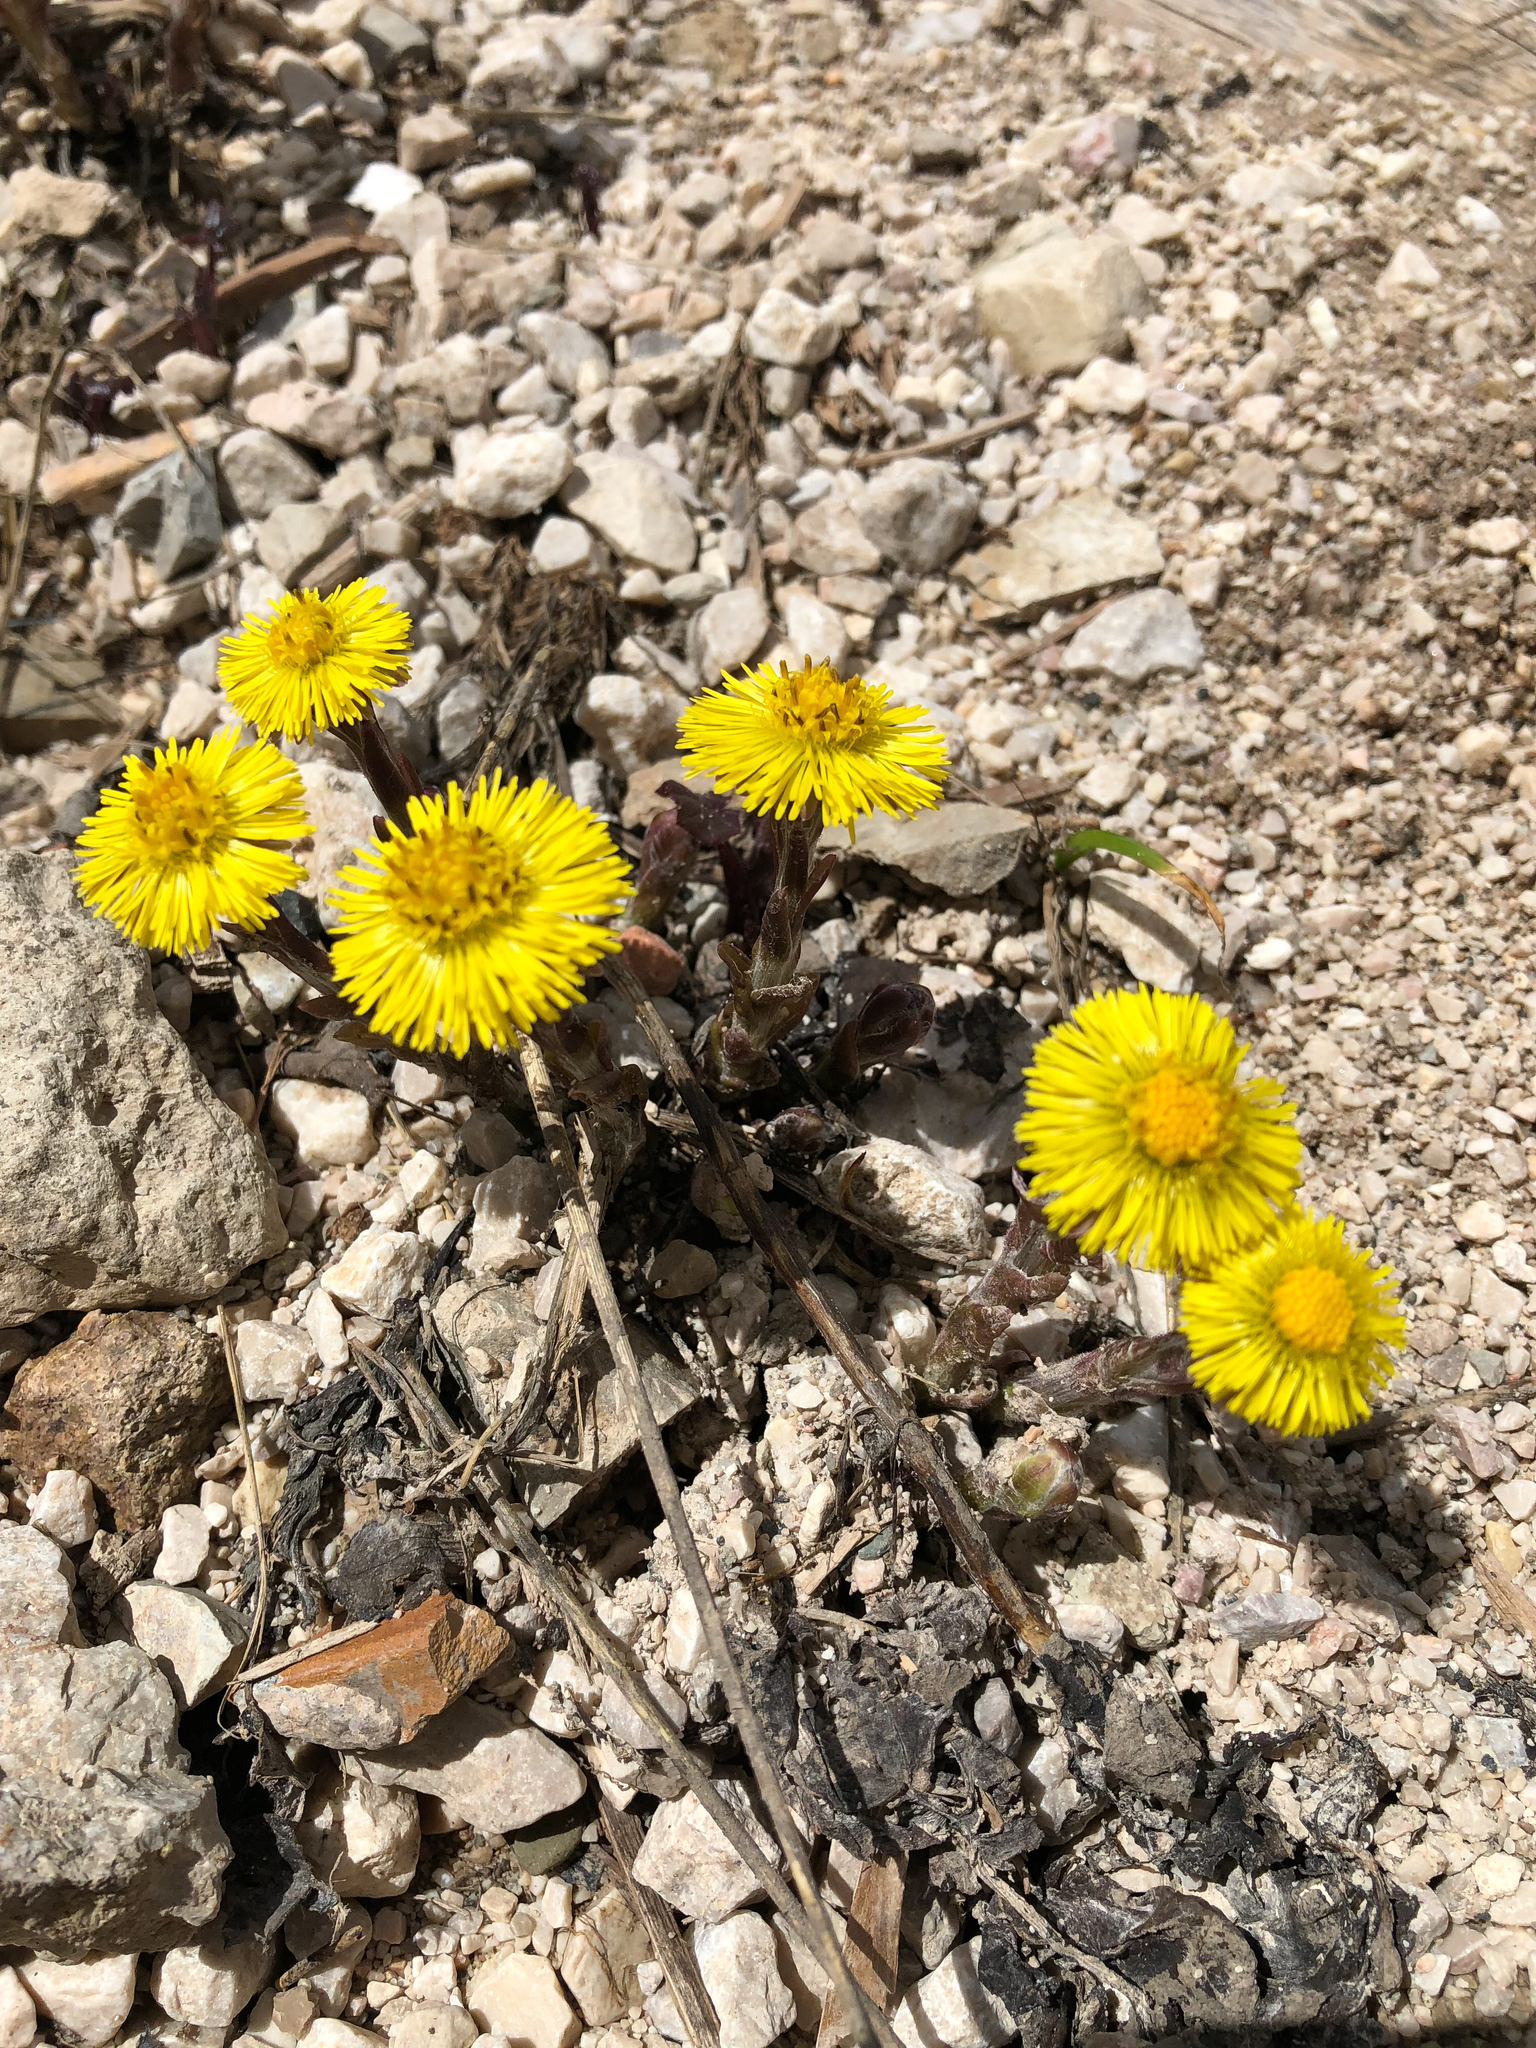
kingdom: Plantae
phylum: Tracheophyta
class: Magnoliopsida
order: Asterales
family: Asteraceae
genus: Tussilago
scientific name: Tussilago farfara
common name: Coltsfoot
